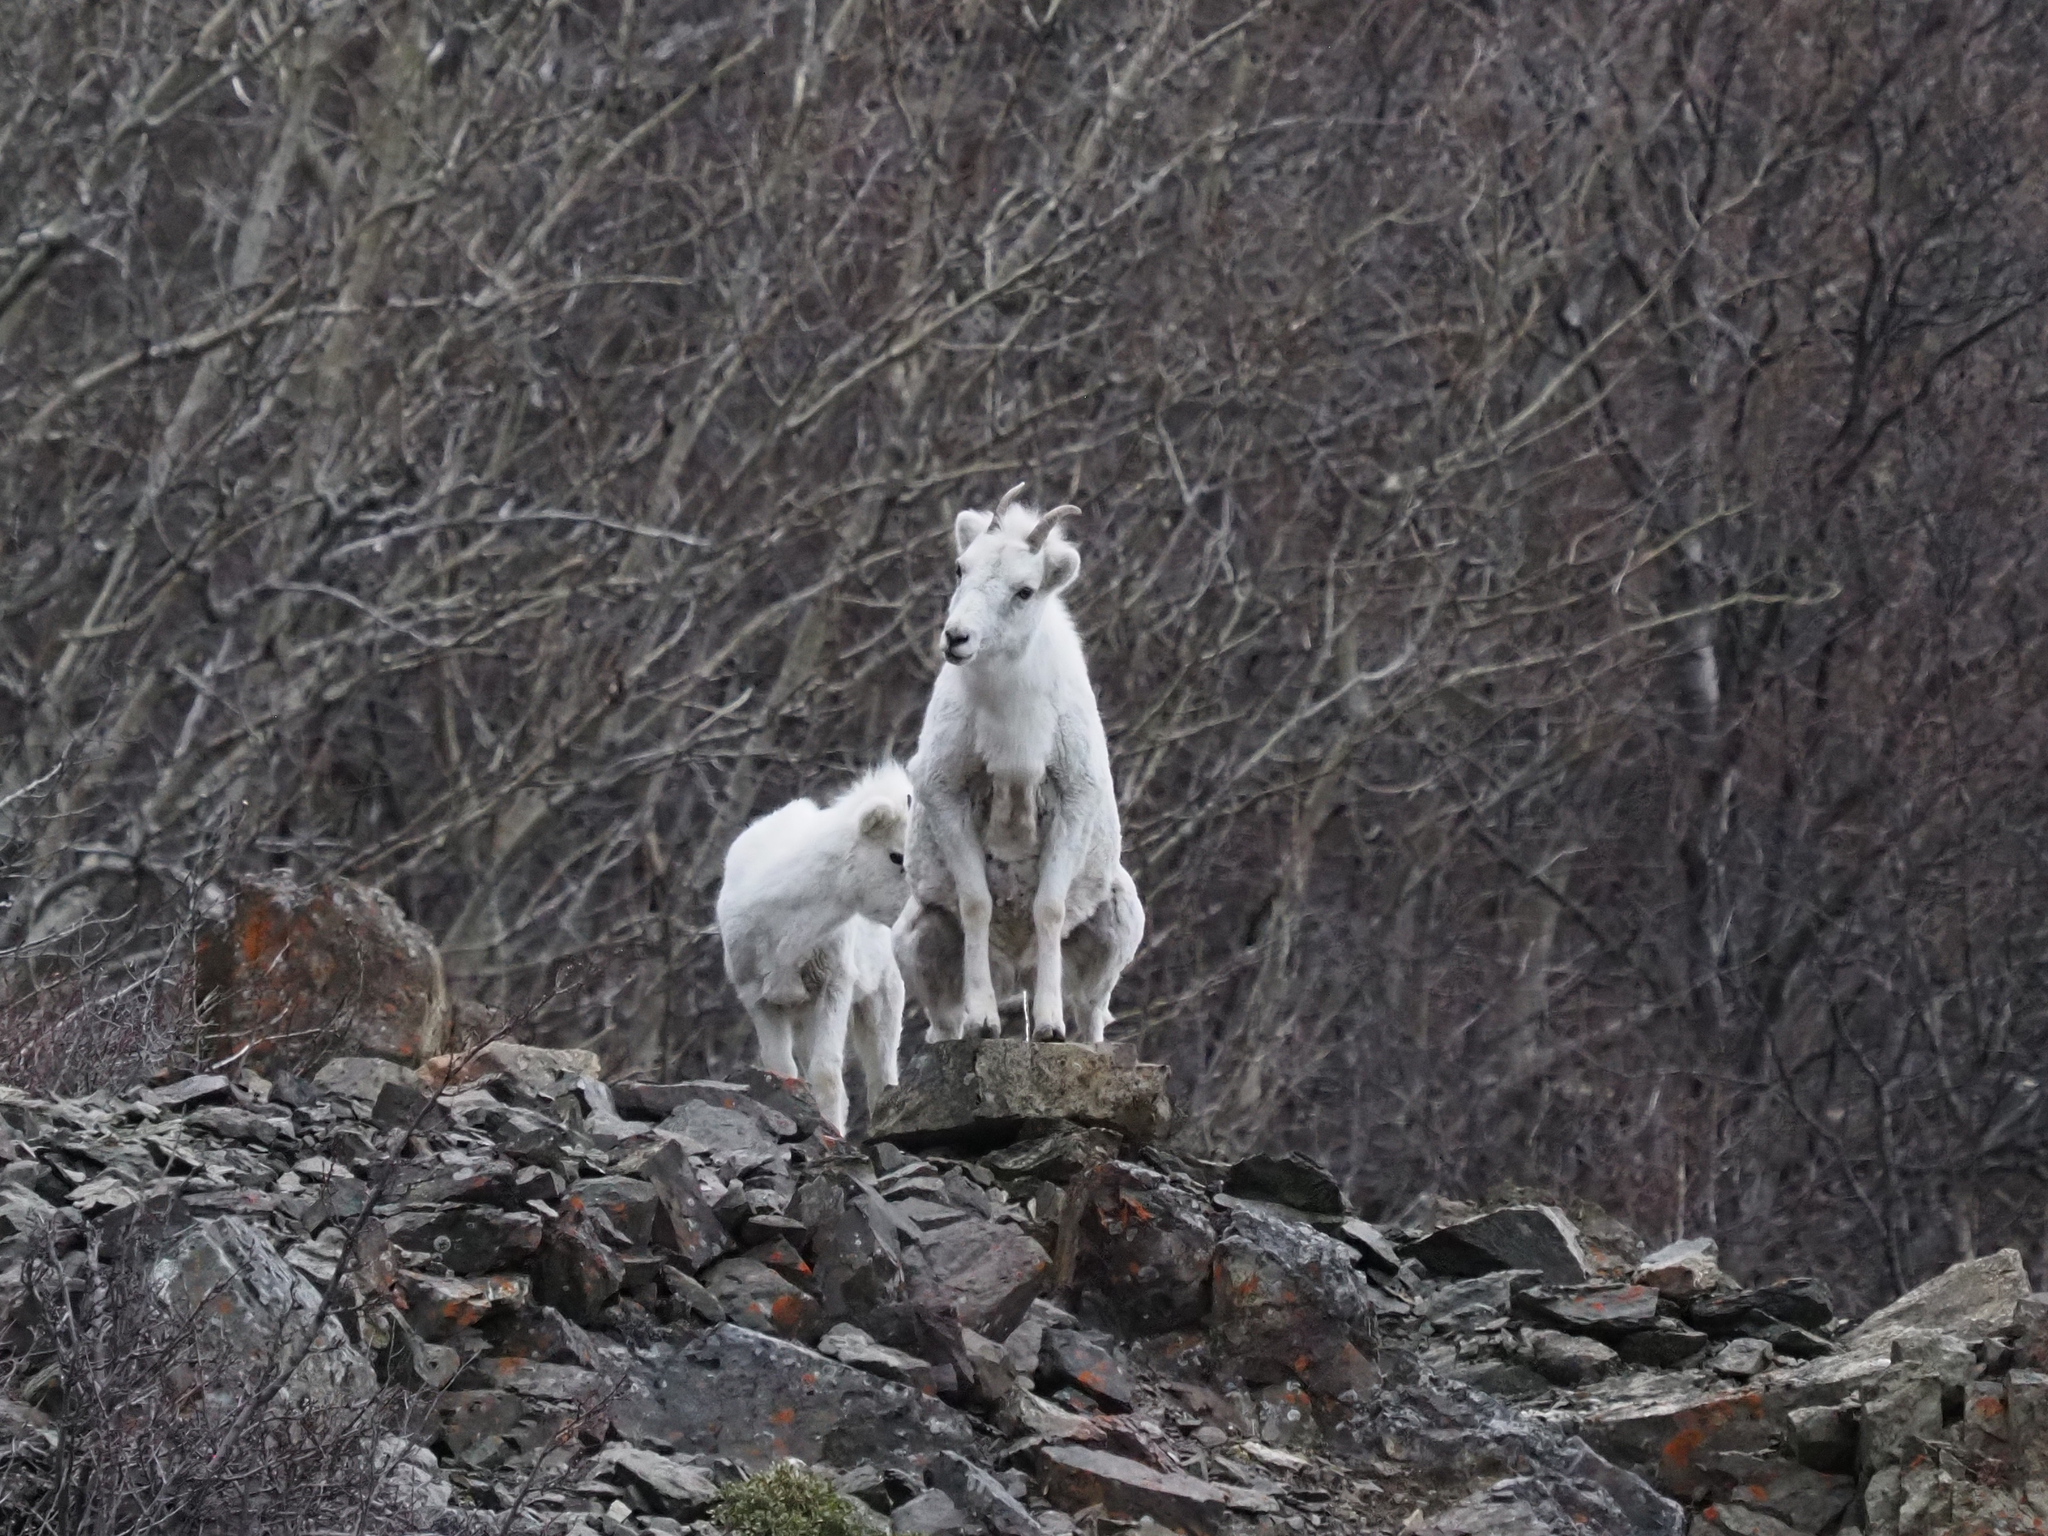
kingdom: Animalia
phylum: Chordata
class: Mammalia
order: Artiodactyla
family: Bovidae
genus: Ovis
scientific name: Ovis dalli
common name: Dall's sheep
